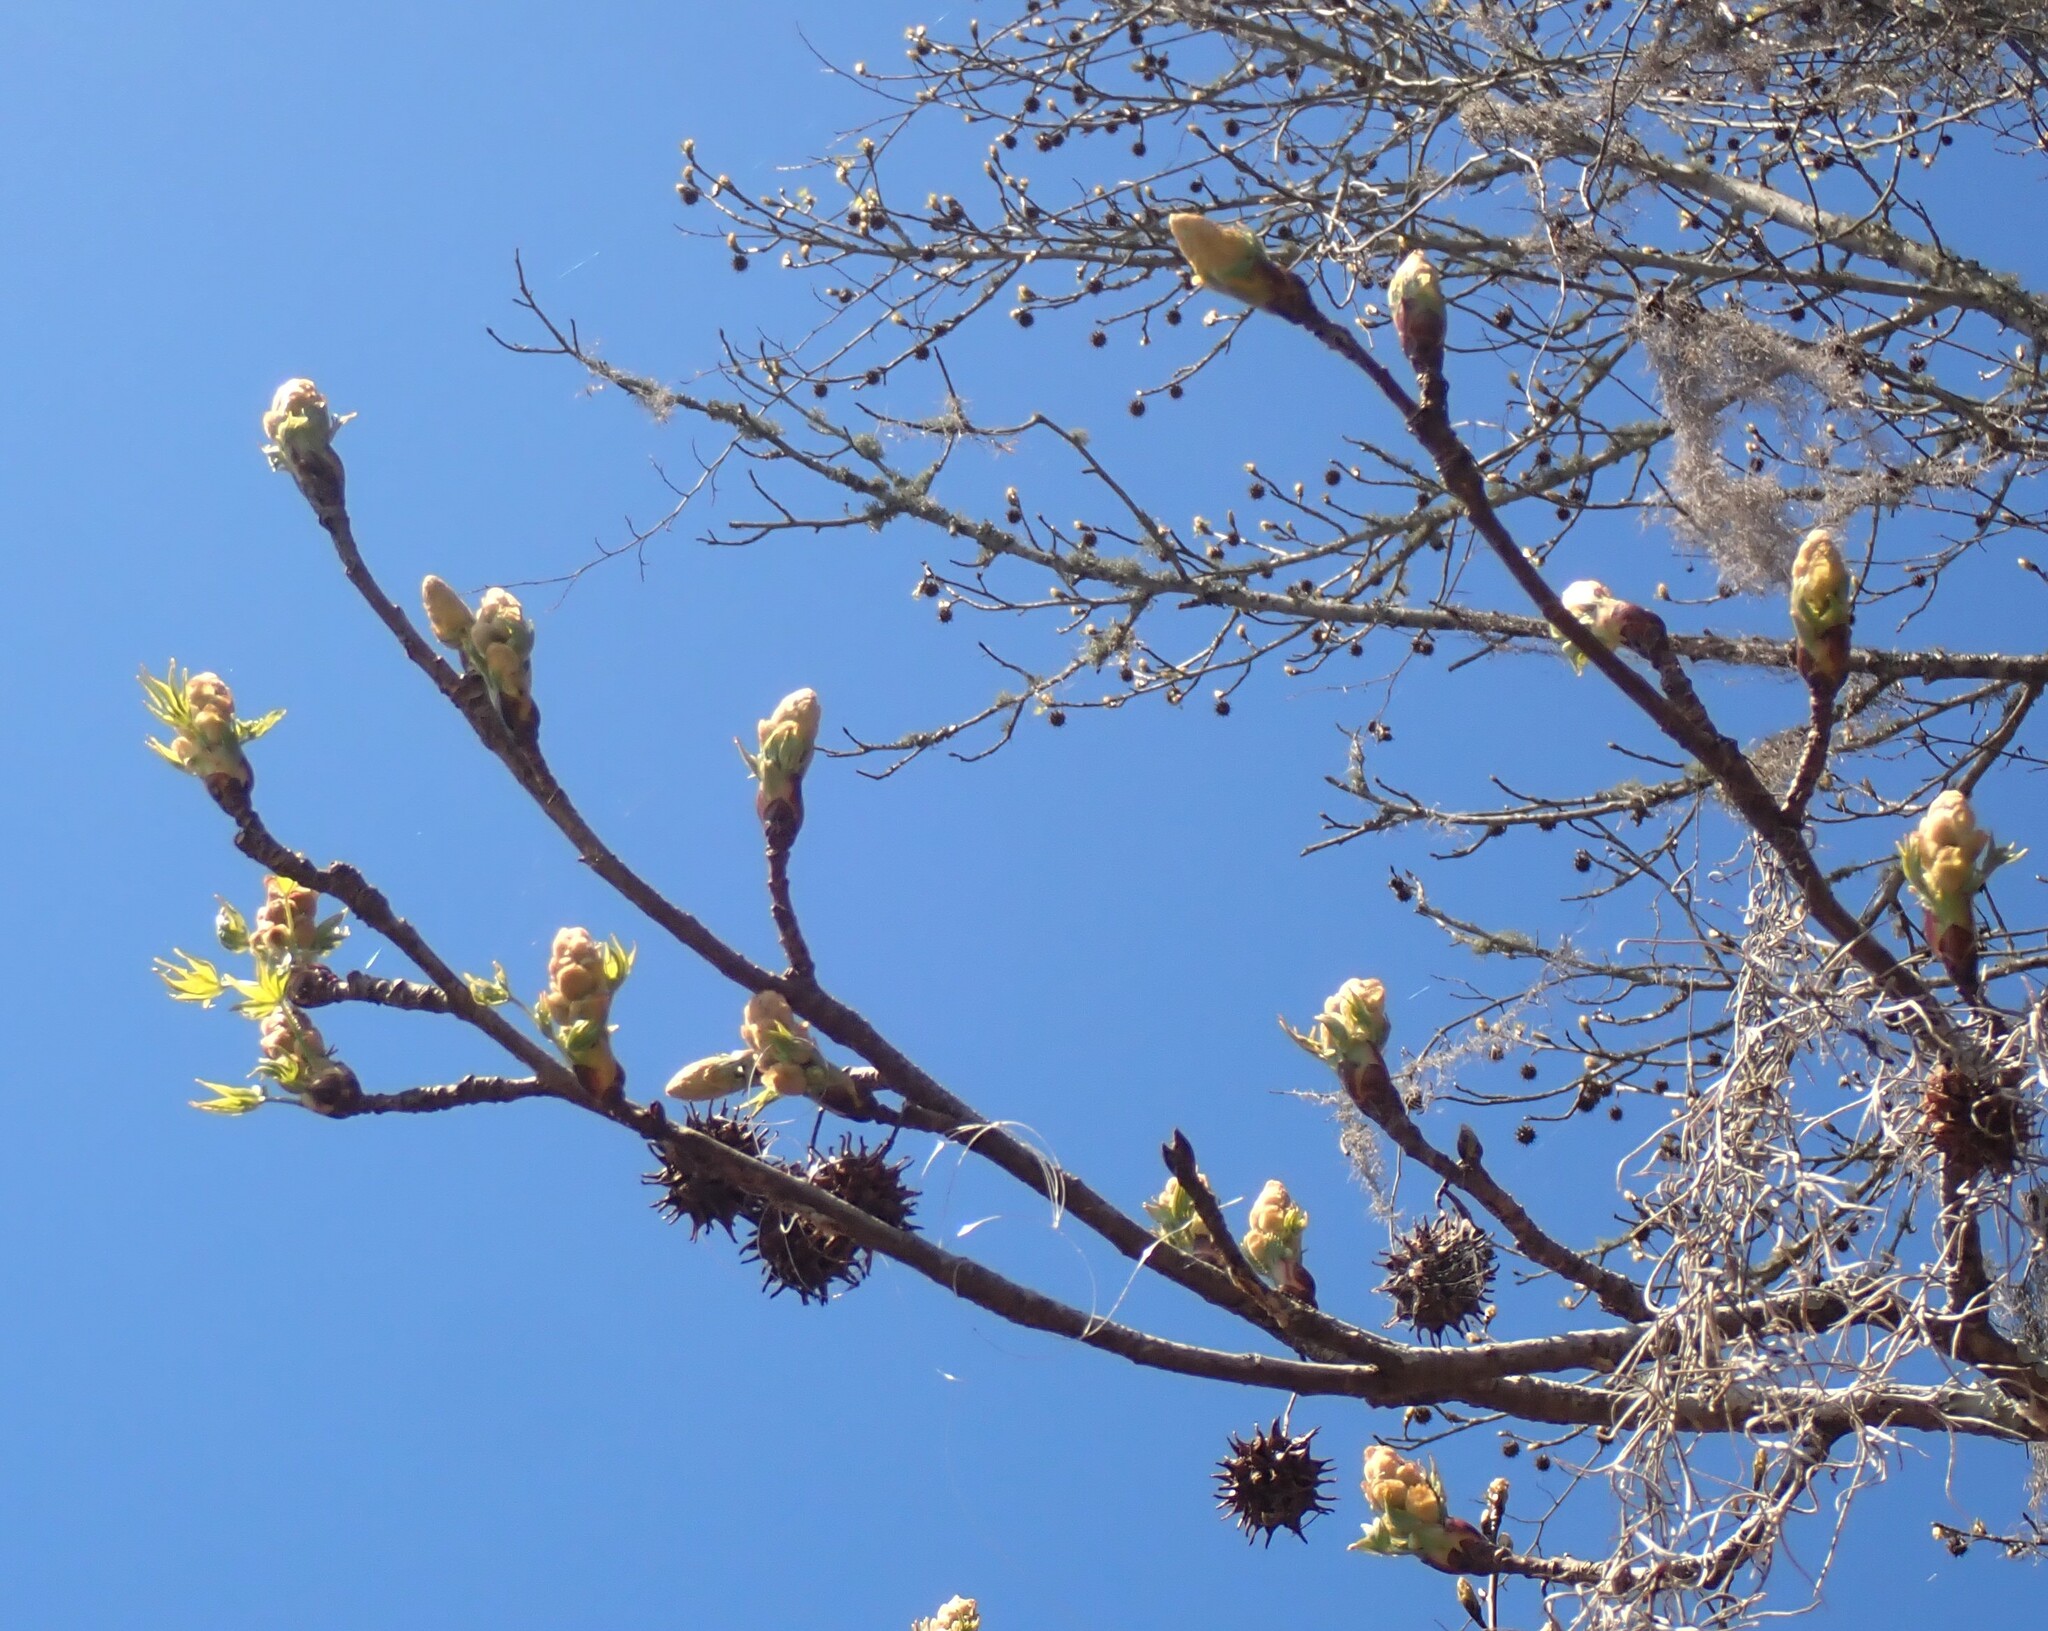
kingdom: Plantae
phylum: Tracheophyta
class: Magnoliopsida
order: Saxifragales
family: Altingiaceae
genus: Liquidambar
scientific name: Liquidambar styraciflua
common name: Sweet gum
